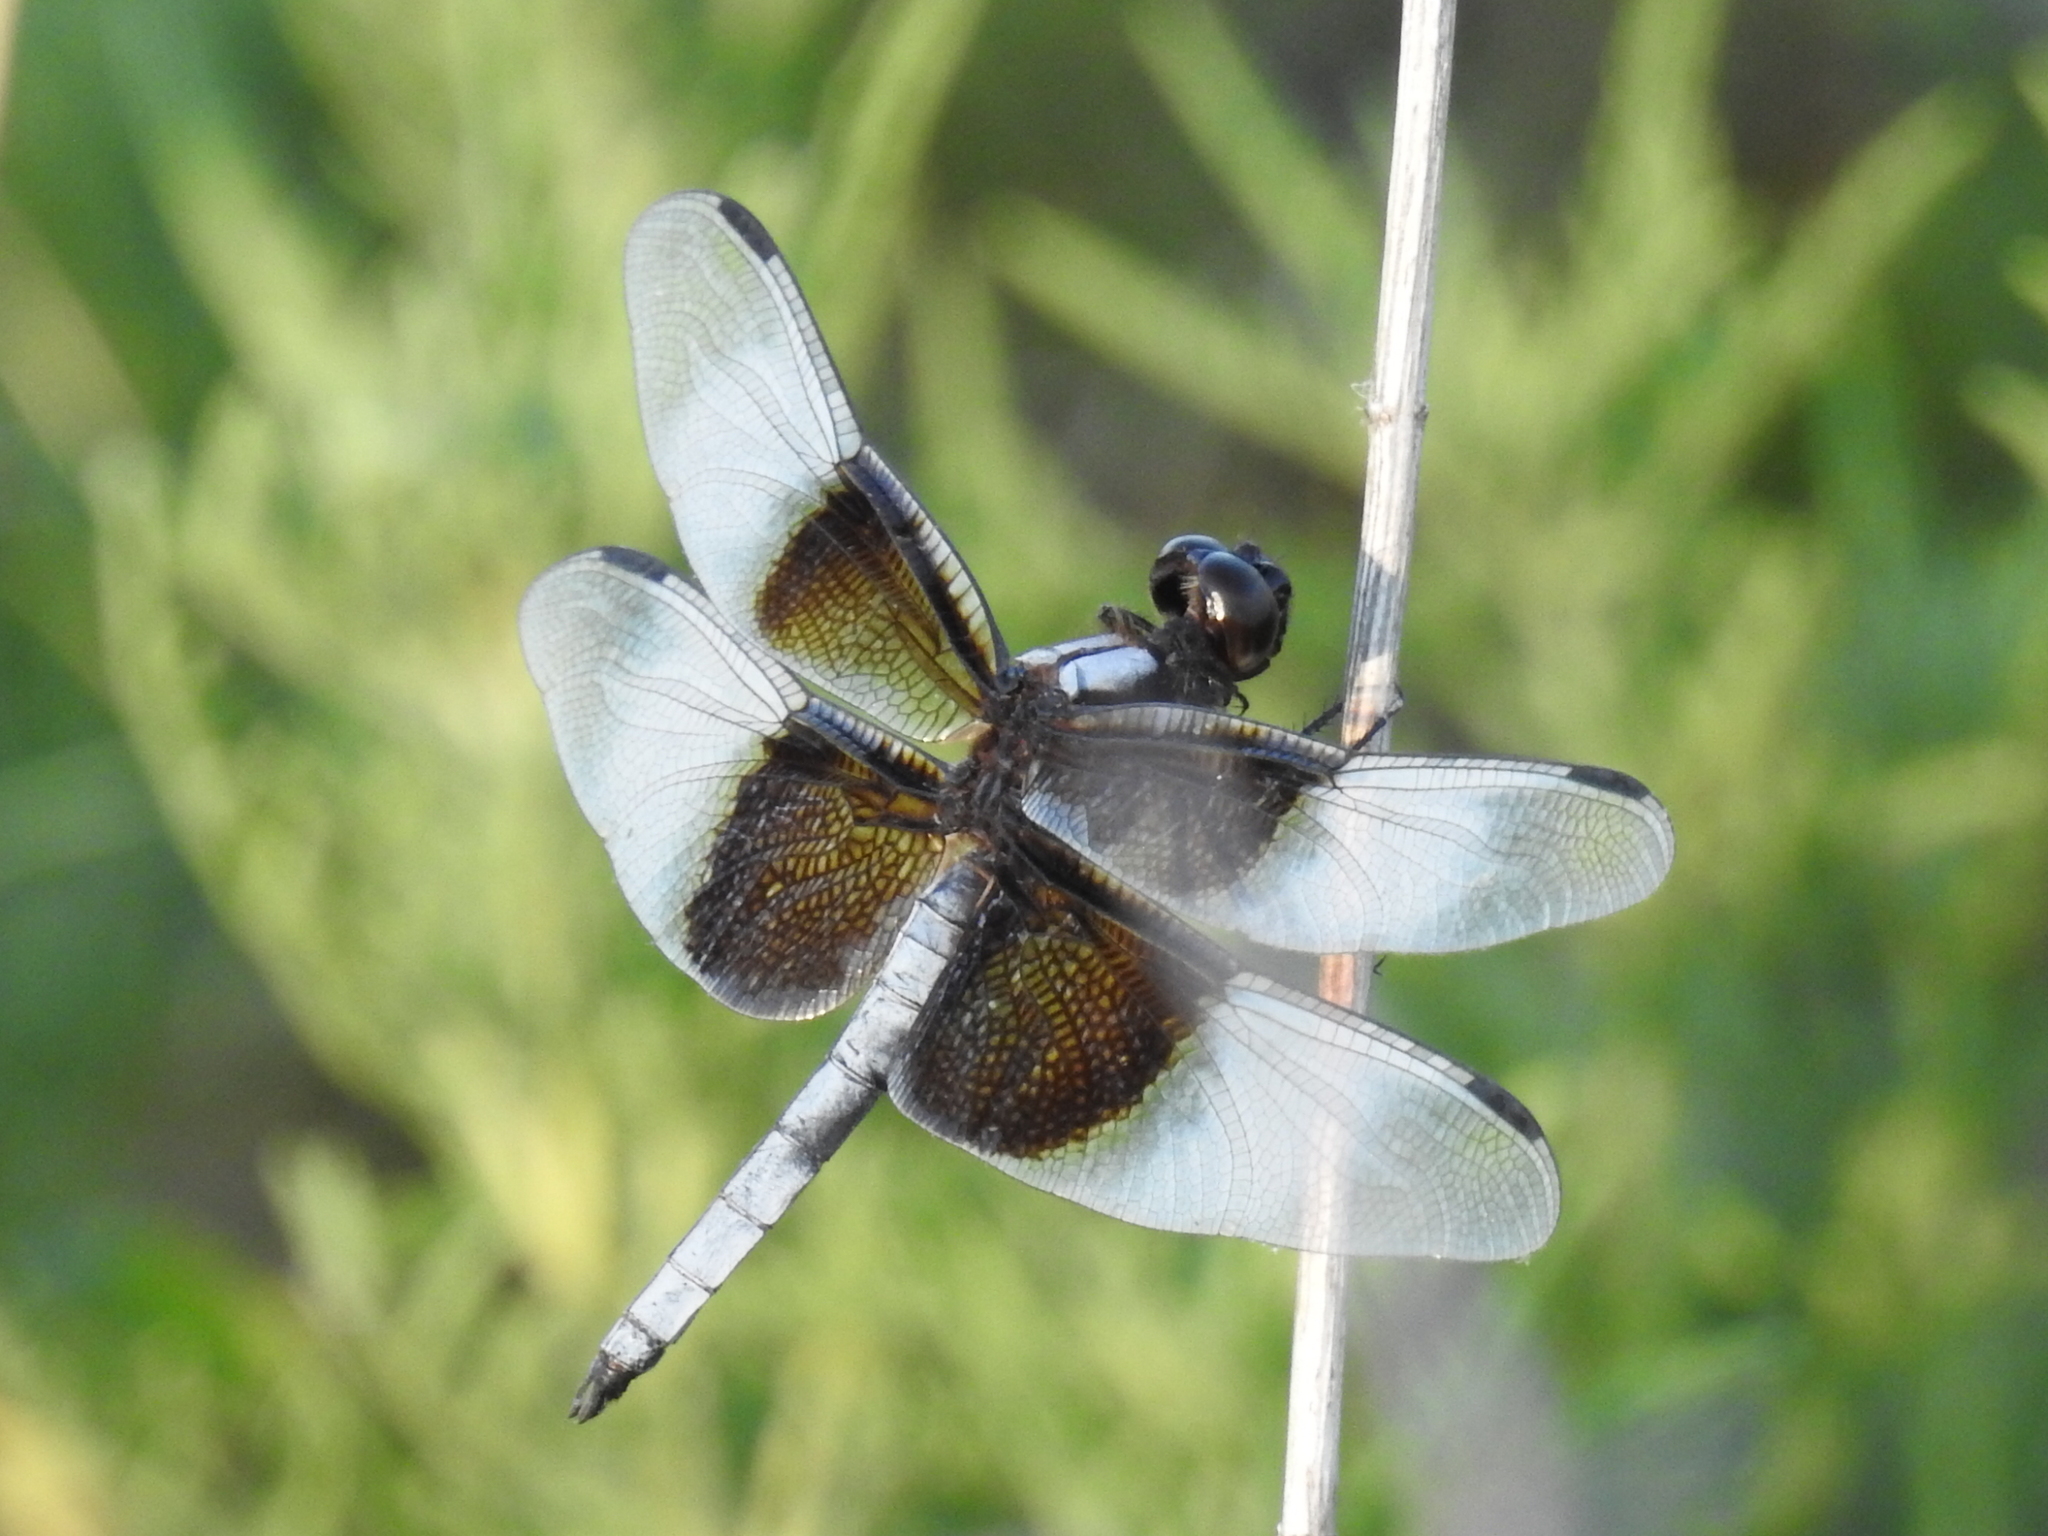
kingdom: Animalia
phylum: Arthropoda
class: Insecta
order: Odonata
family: Libellulidae
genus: Libellula
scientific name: Libellula luctuosa
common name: Widow skimmer
